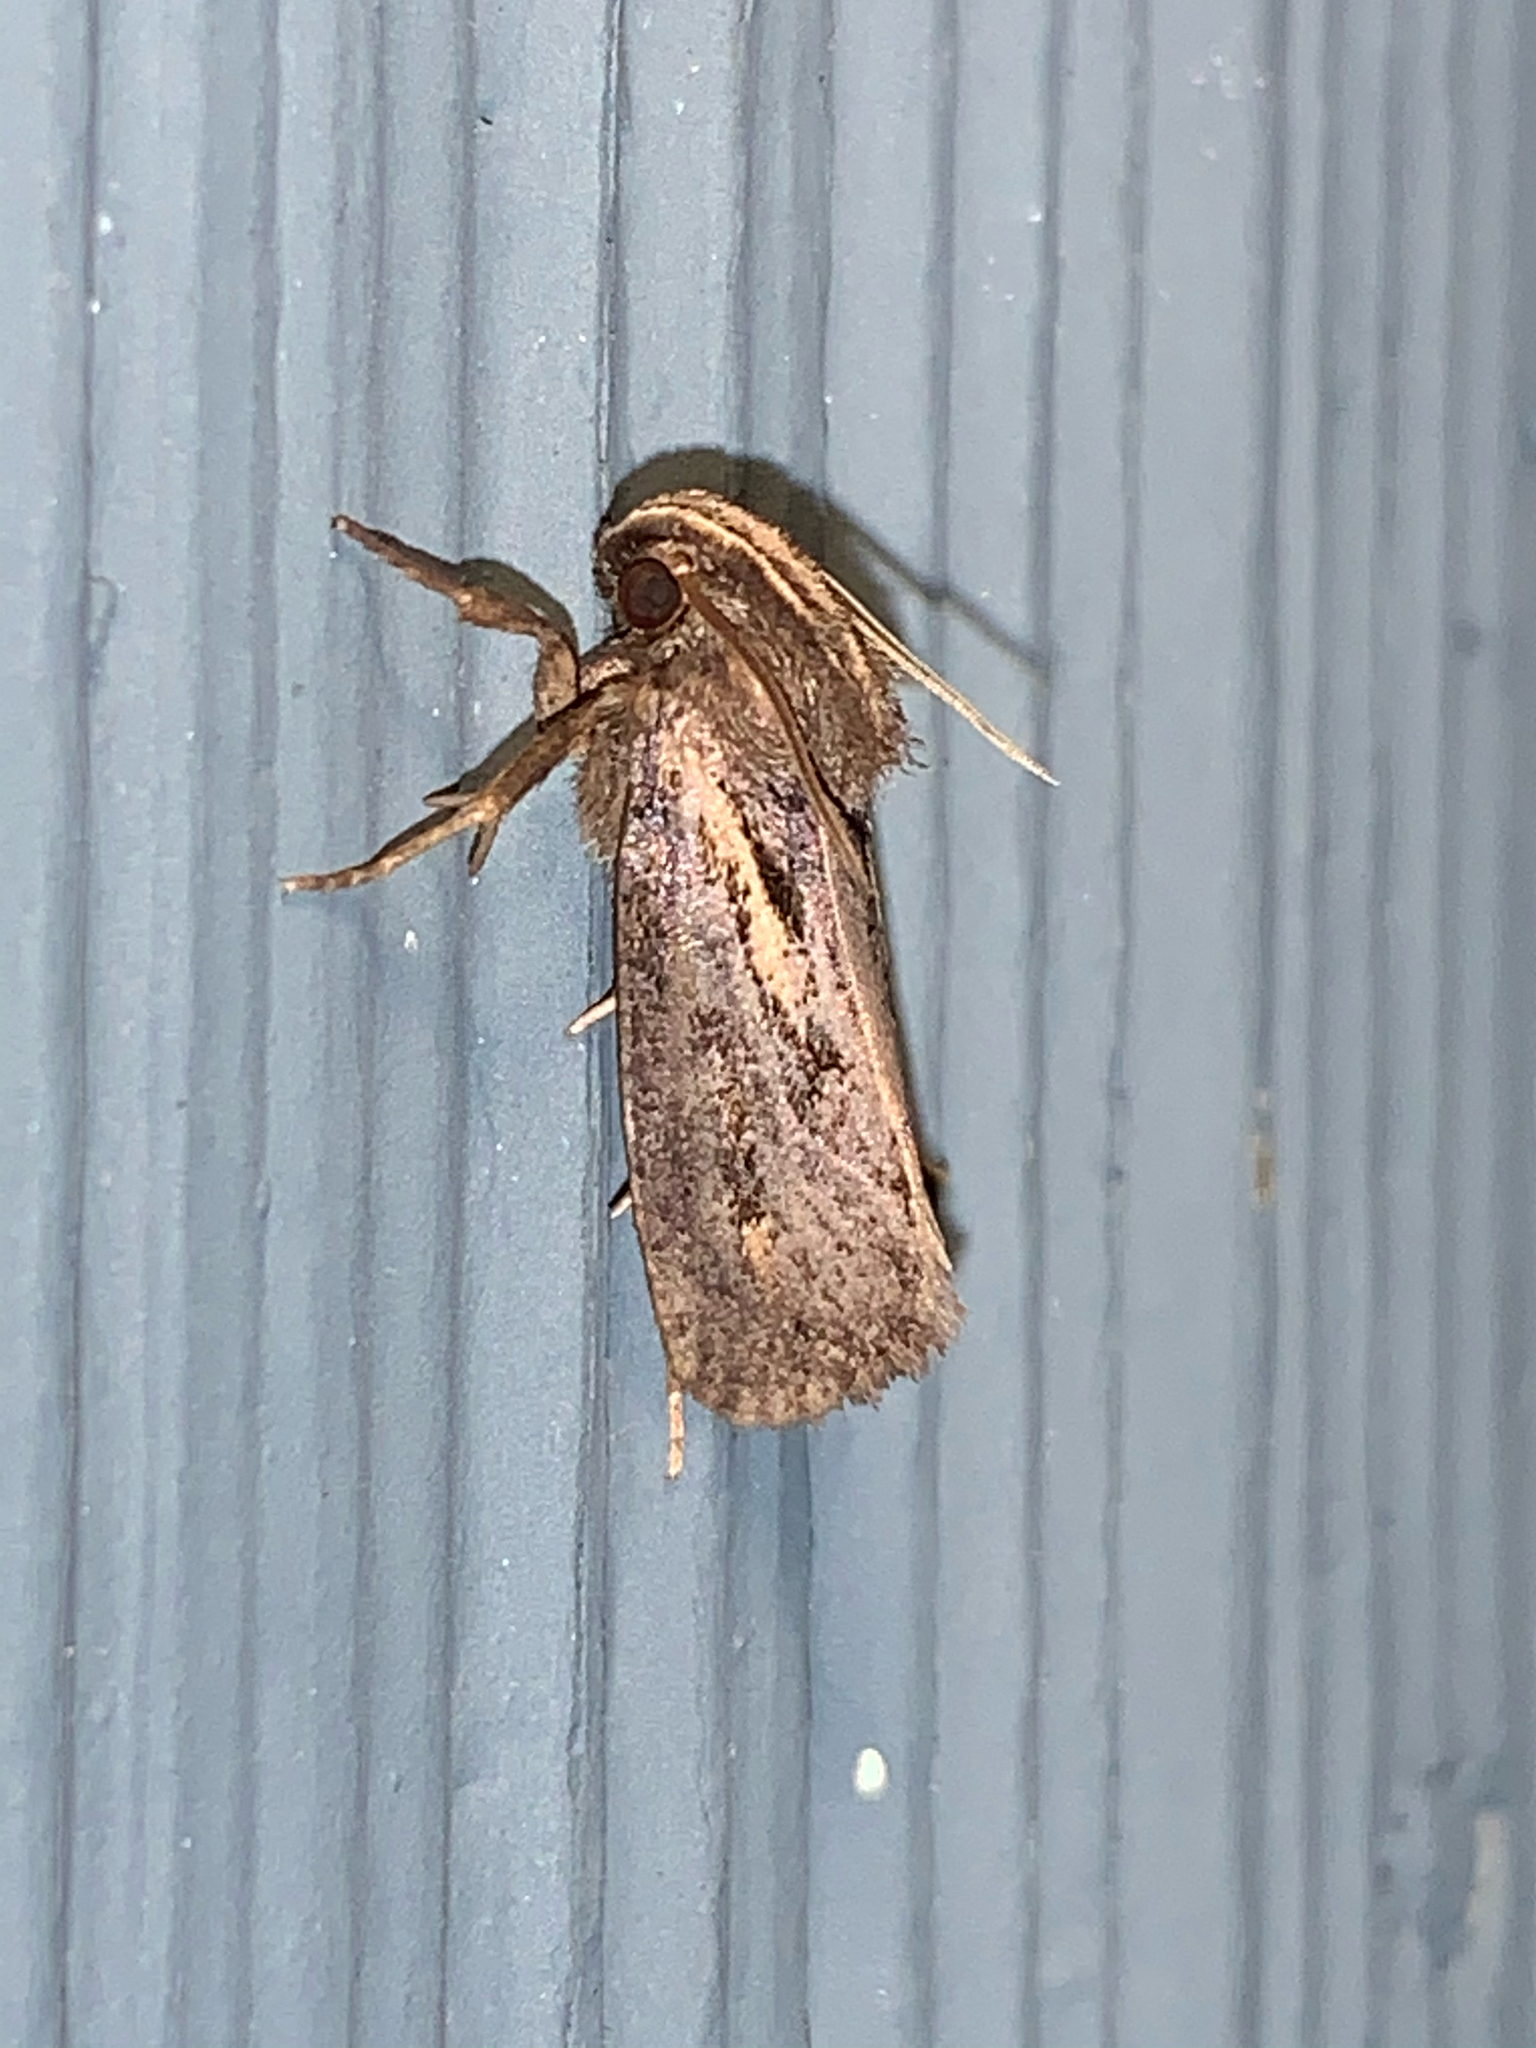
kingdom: Animalia
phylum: Arthropoda
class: Insecta
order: Lepidoptera
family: Tineidae
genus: Acrolophus
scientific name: Acrolophus popeanella
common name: Clemens' grass tubeworm moth
